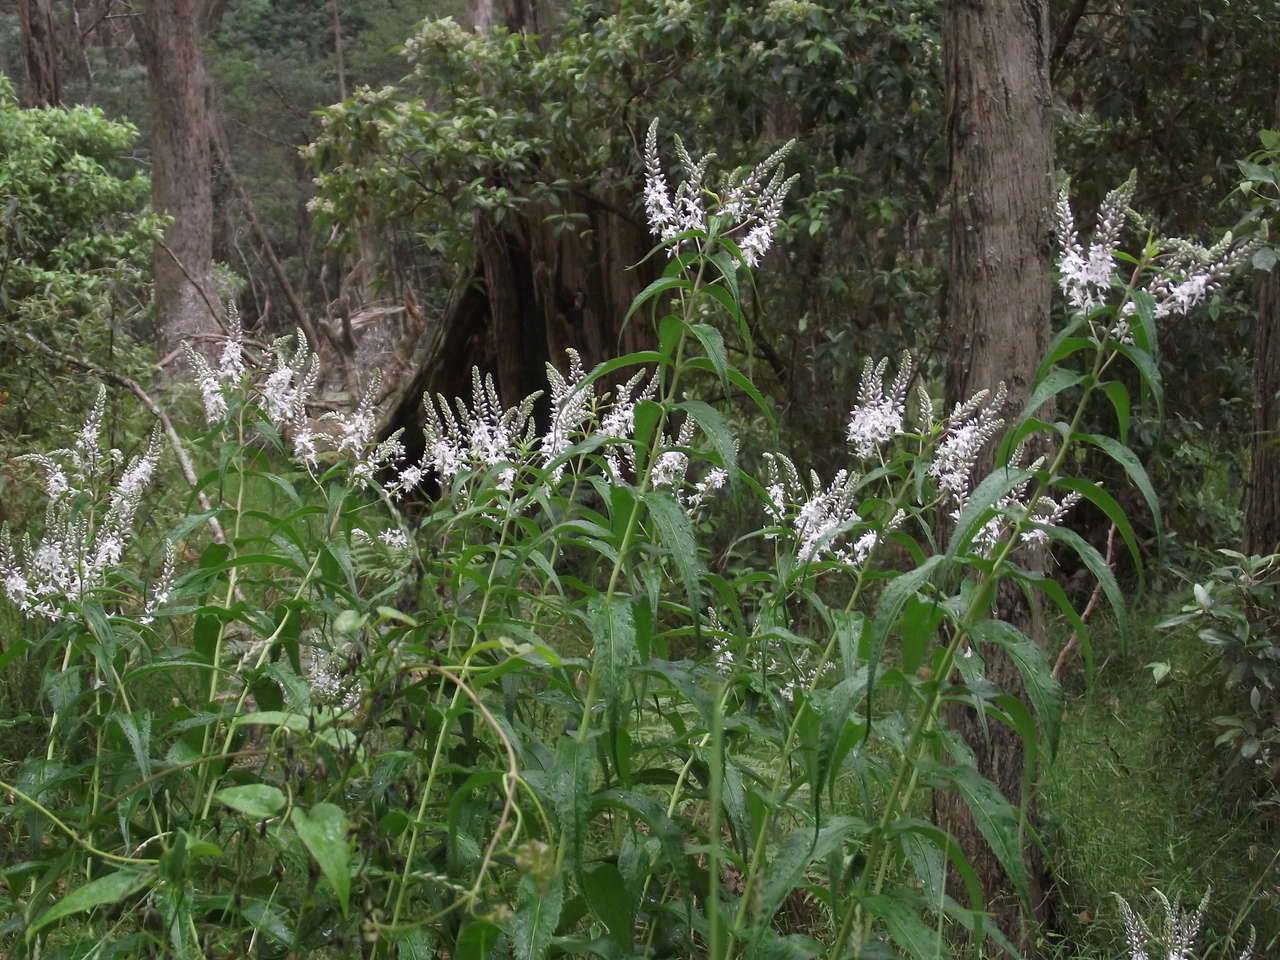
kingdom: Plantae
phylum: Tracheophyta
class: Magnoliopsida
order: Lamiales
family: Plantaginaceae
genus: Veronica
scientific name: Veronica derwentiana
